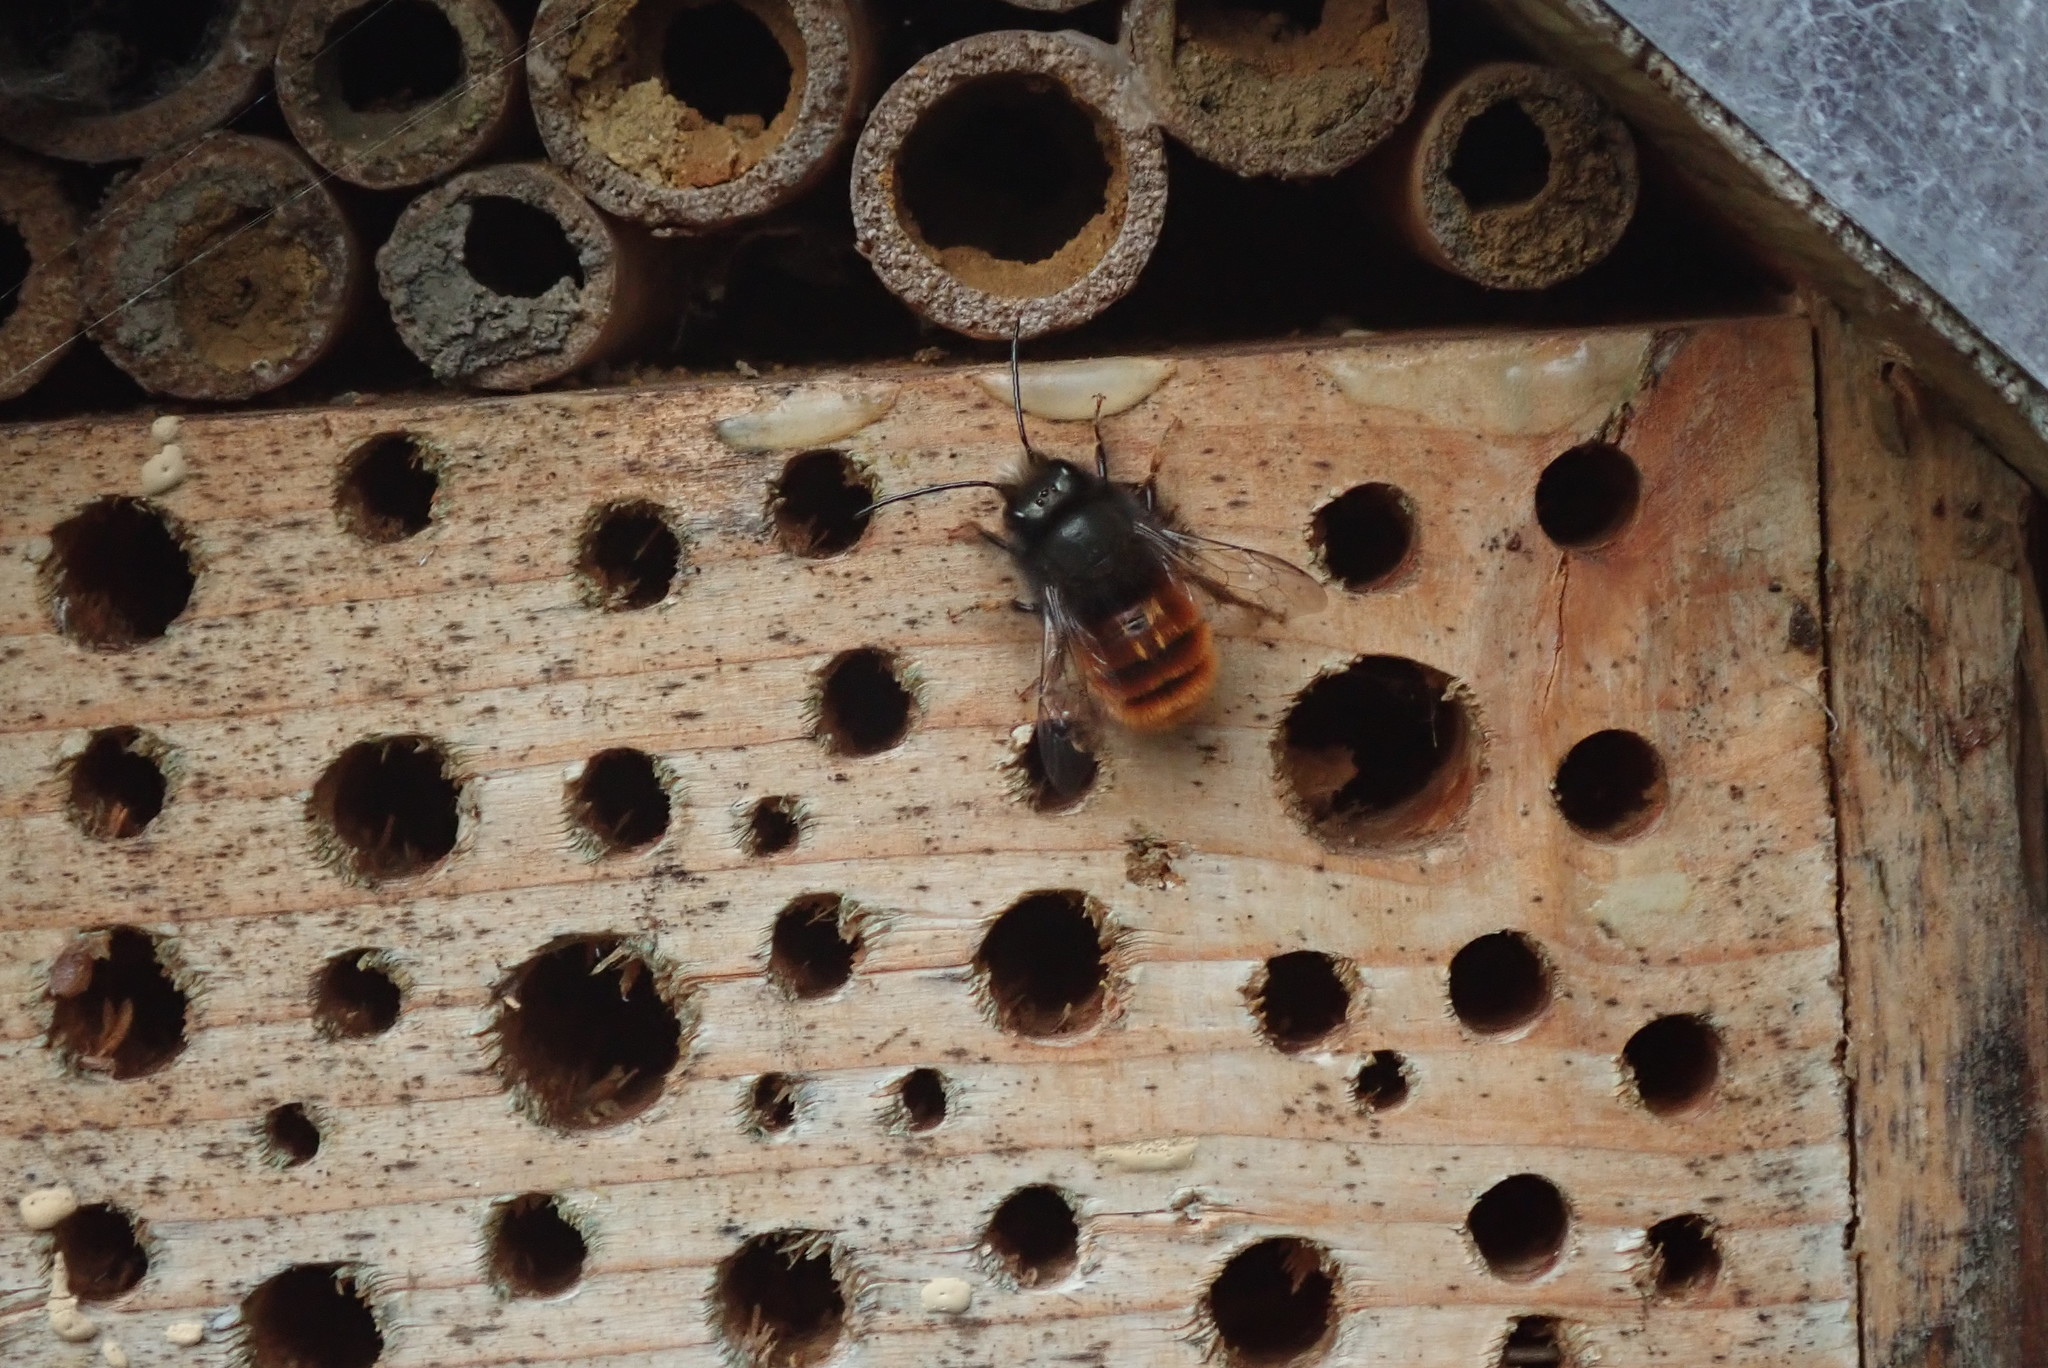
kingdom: Animalia
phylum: Arthropoda
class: Insecta
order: Hymenoptera
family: Megachilidae
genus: Osmia
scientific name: Osmia cornuta
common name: Mason bee
